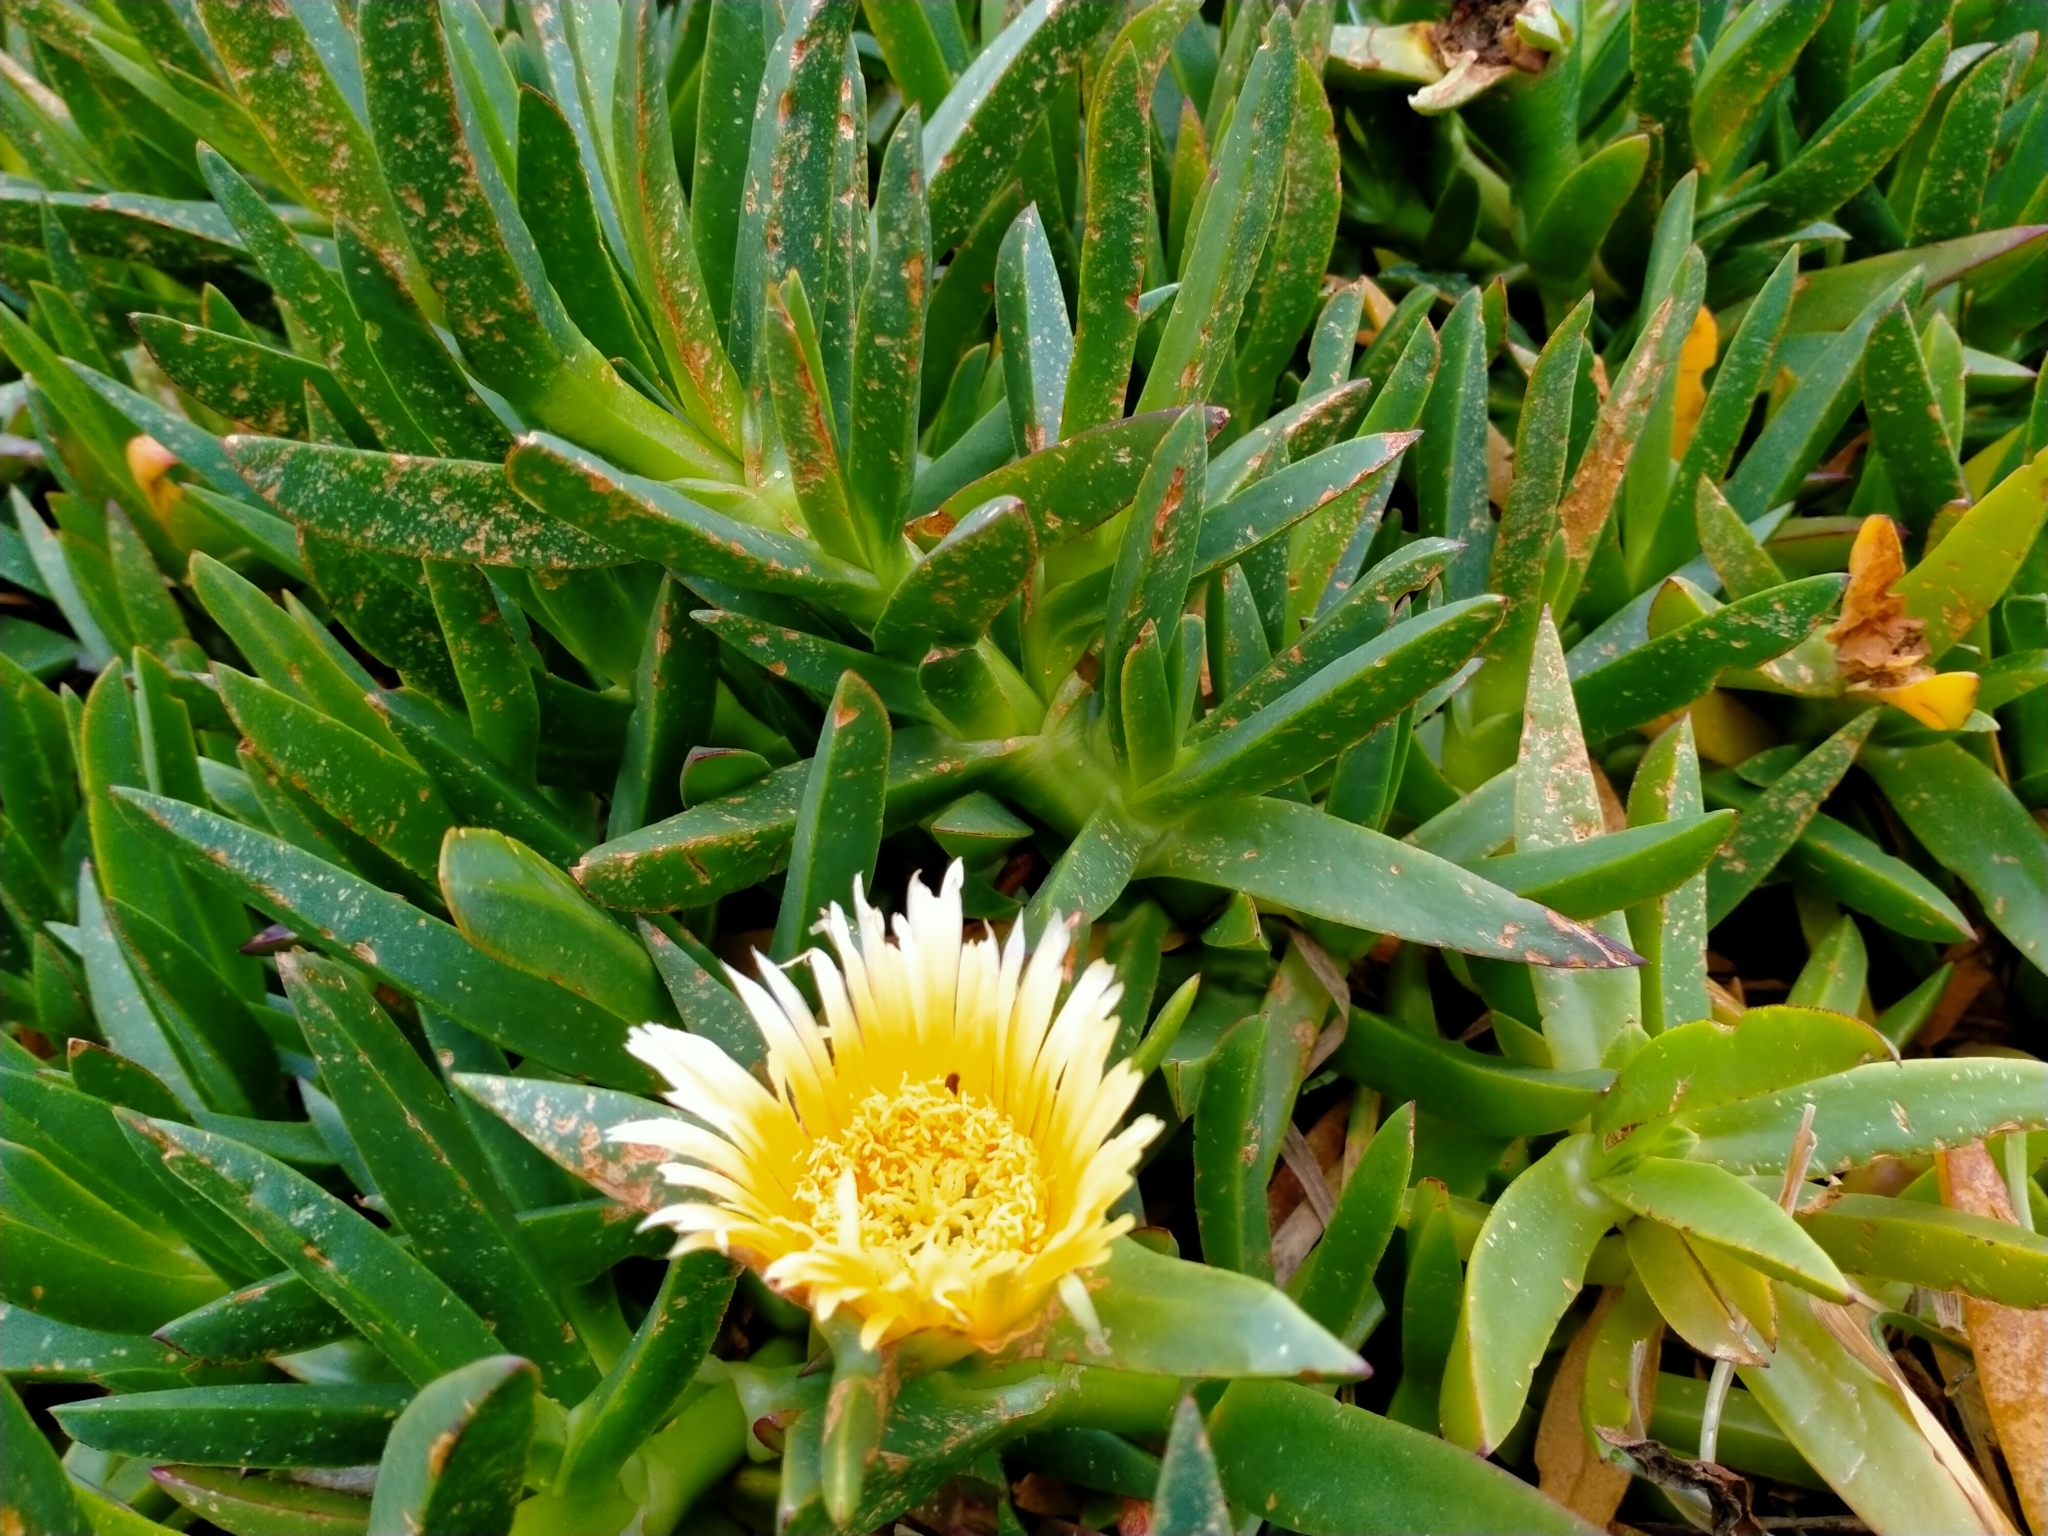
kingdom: Plantae
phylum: Tracheophyta
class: Magnoliopsida
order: Caryophyllales
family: Aizoaceae
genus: Carpobrotus
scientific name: Carpobrotus edulis
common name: Hottentot-fig
